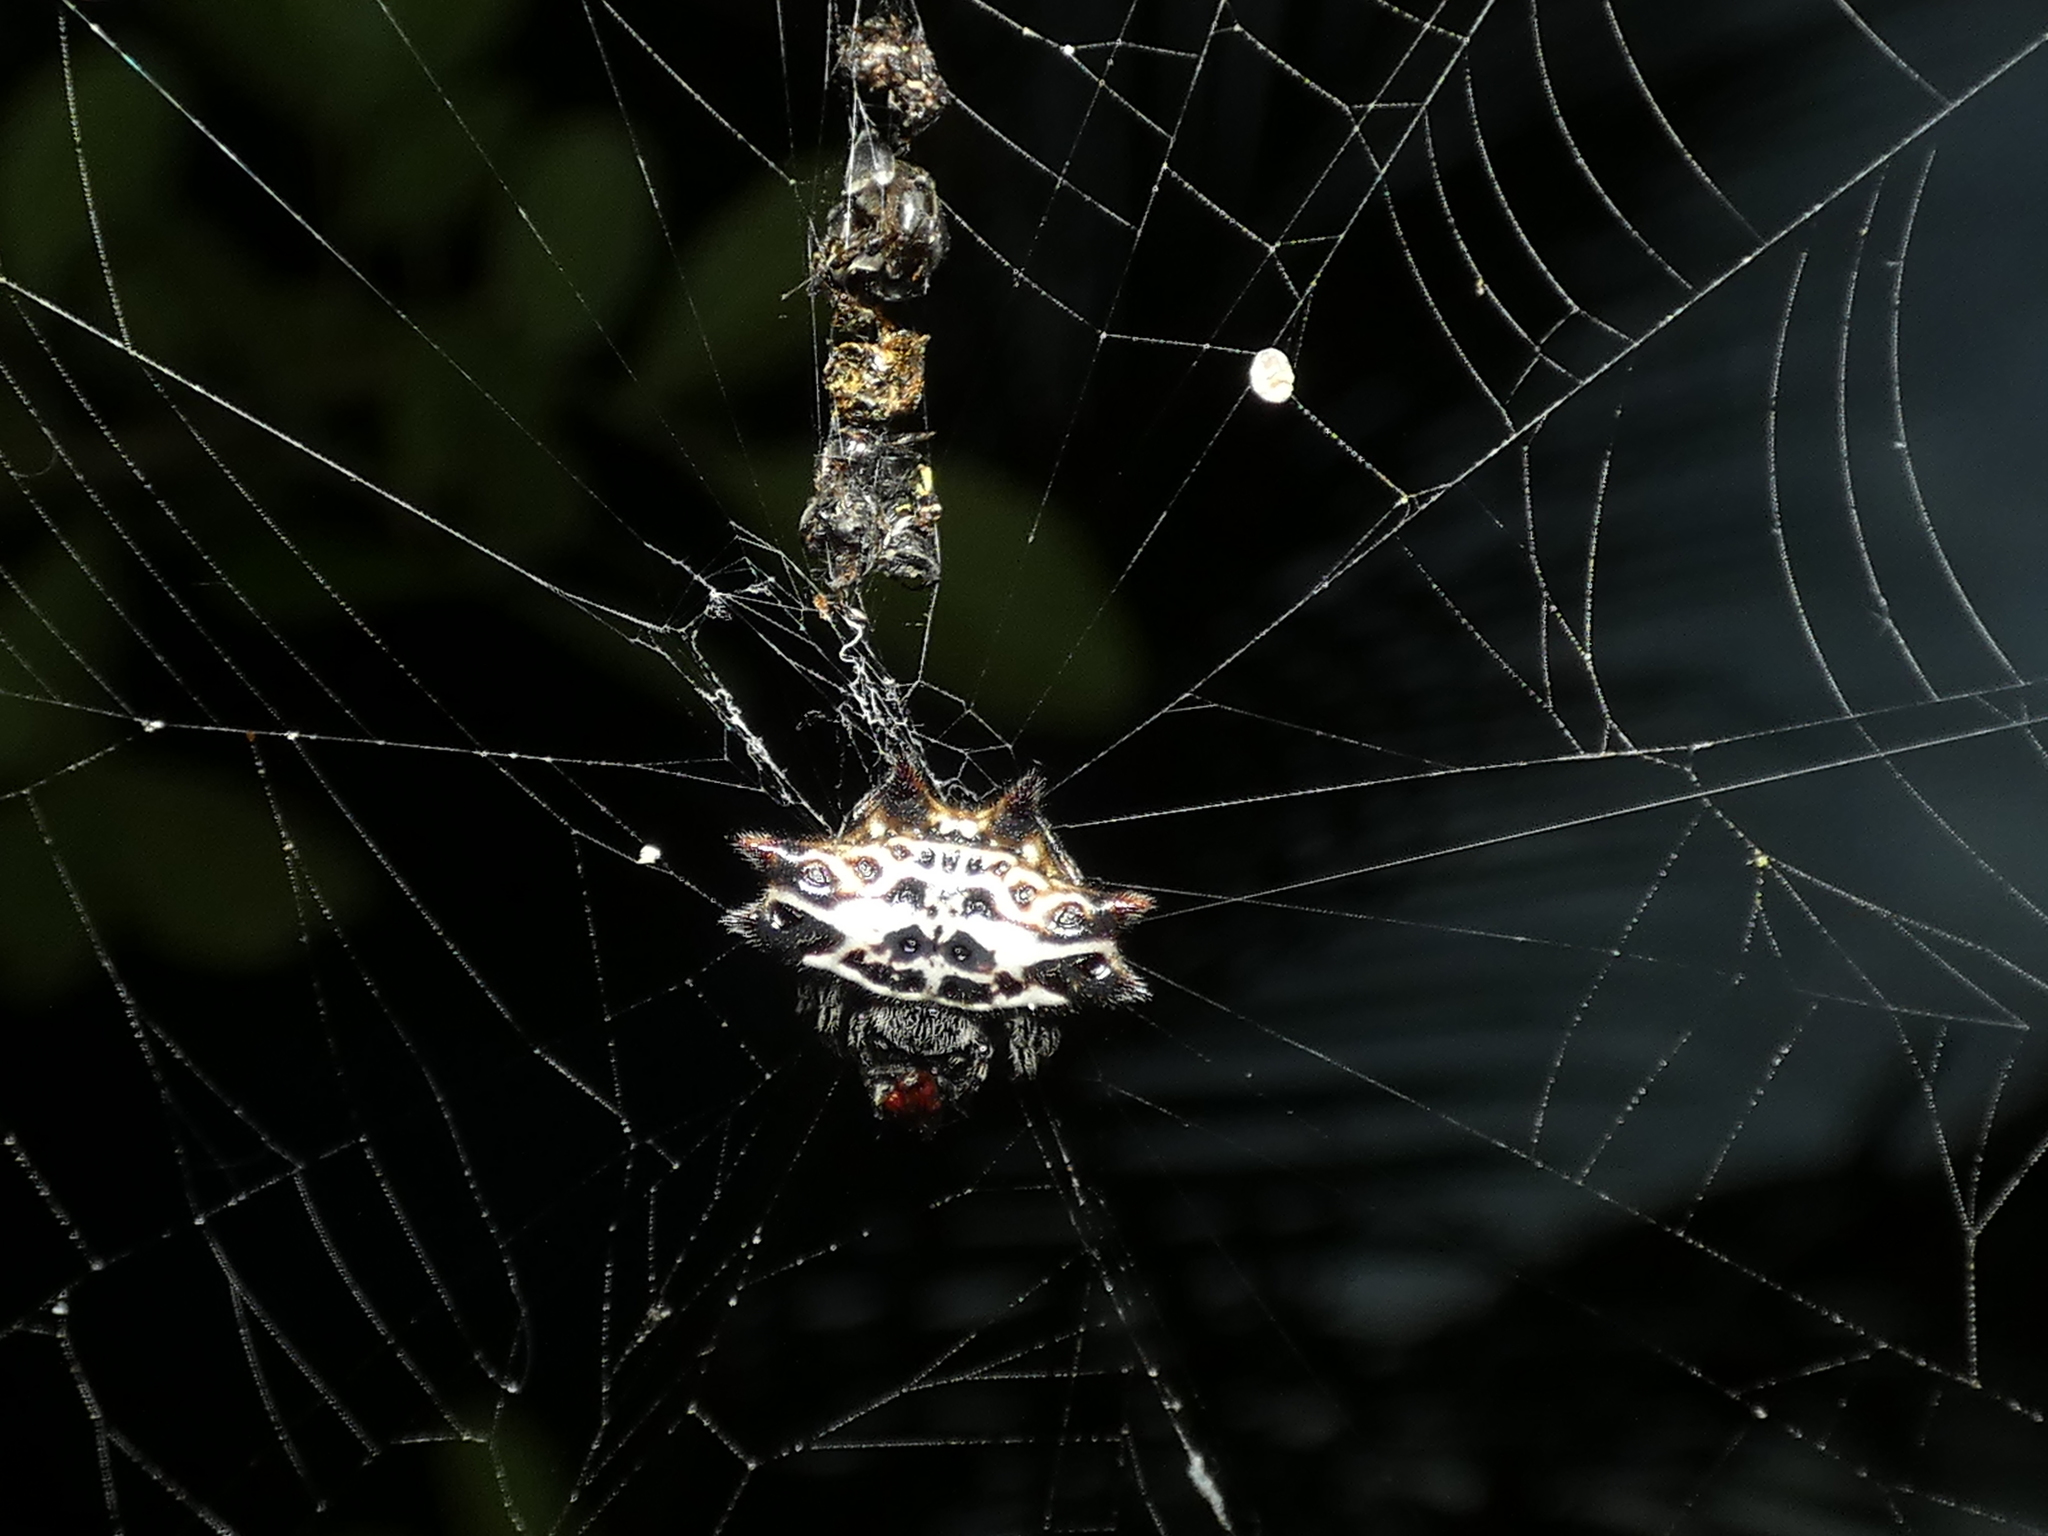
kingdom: Animalia
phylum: Arthropoda
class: Arachnida
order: Araneae
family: Araneidae
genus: Gasteracantha
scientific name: Gasteracantha cancriformis
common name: Orb weavers
